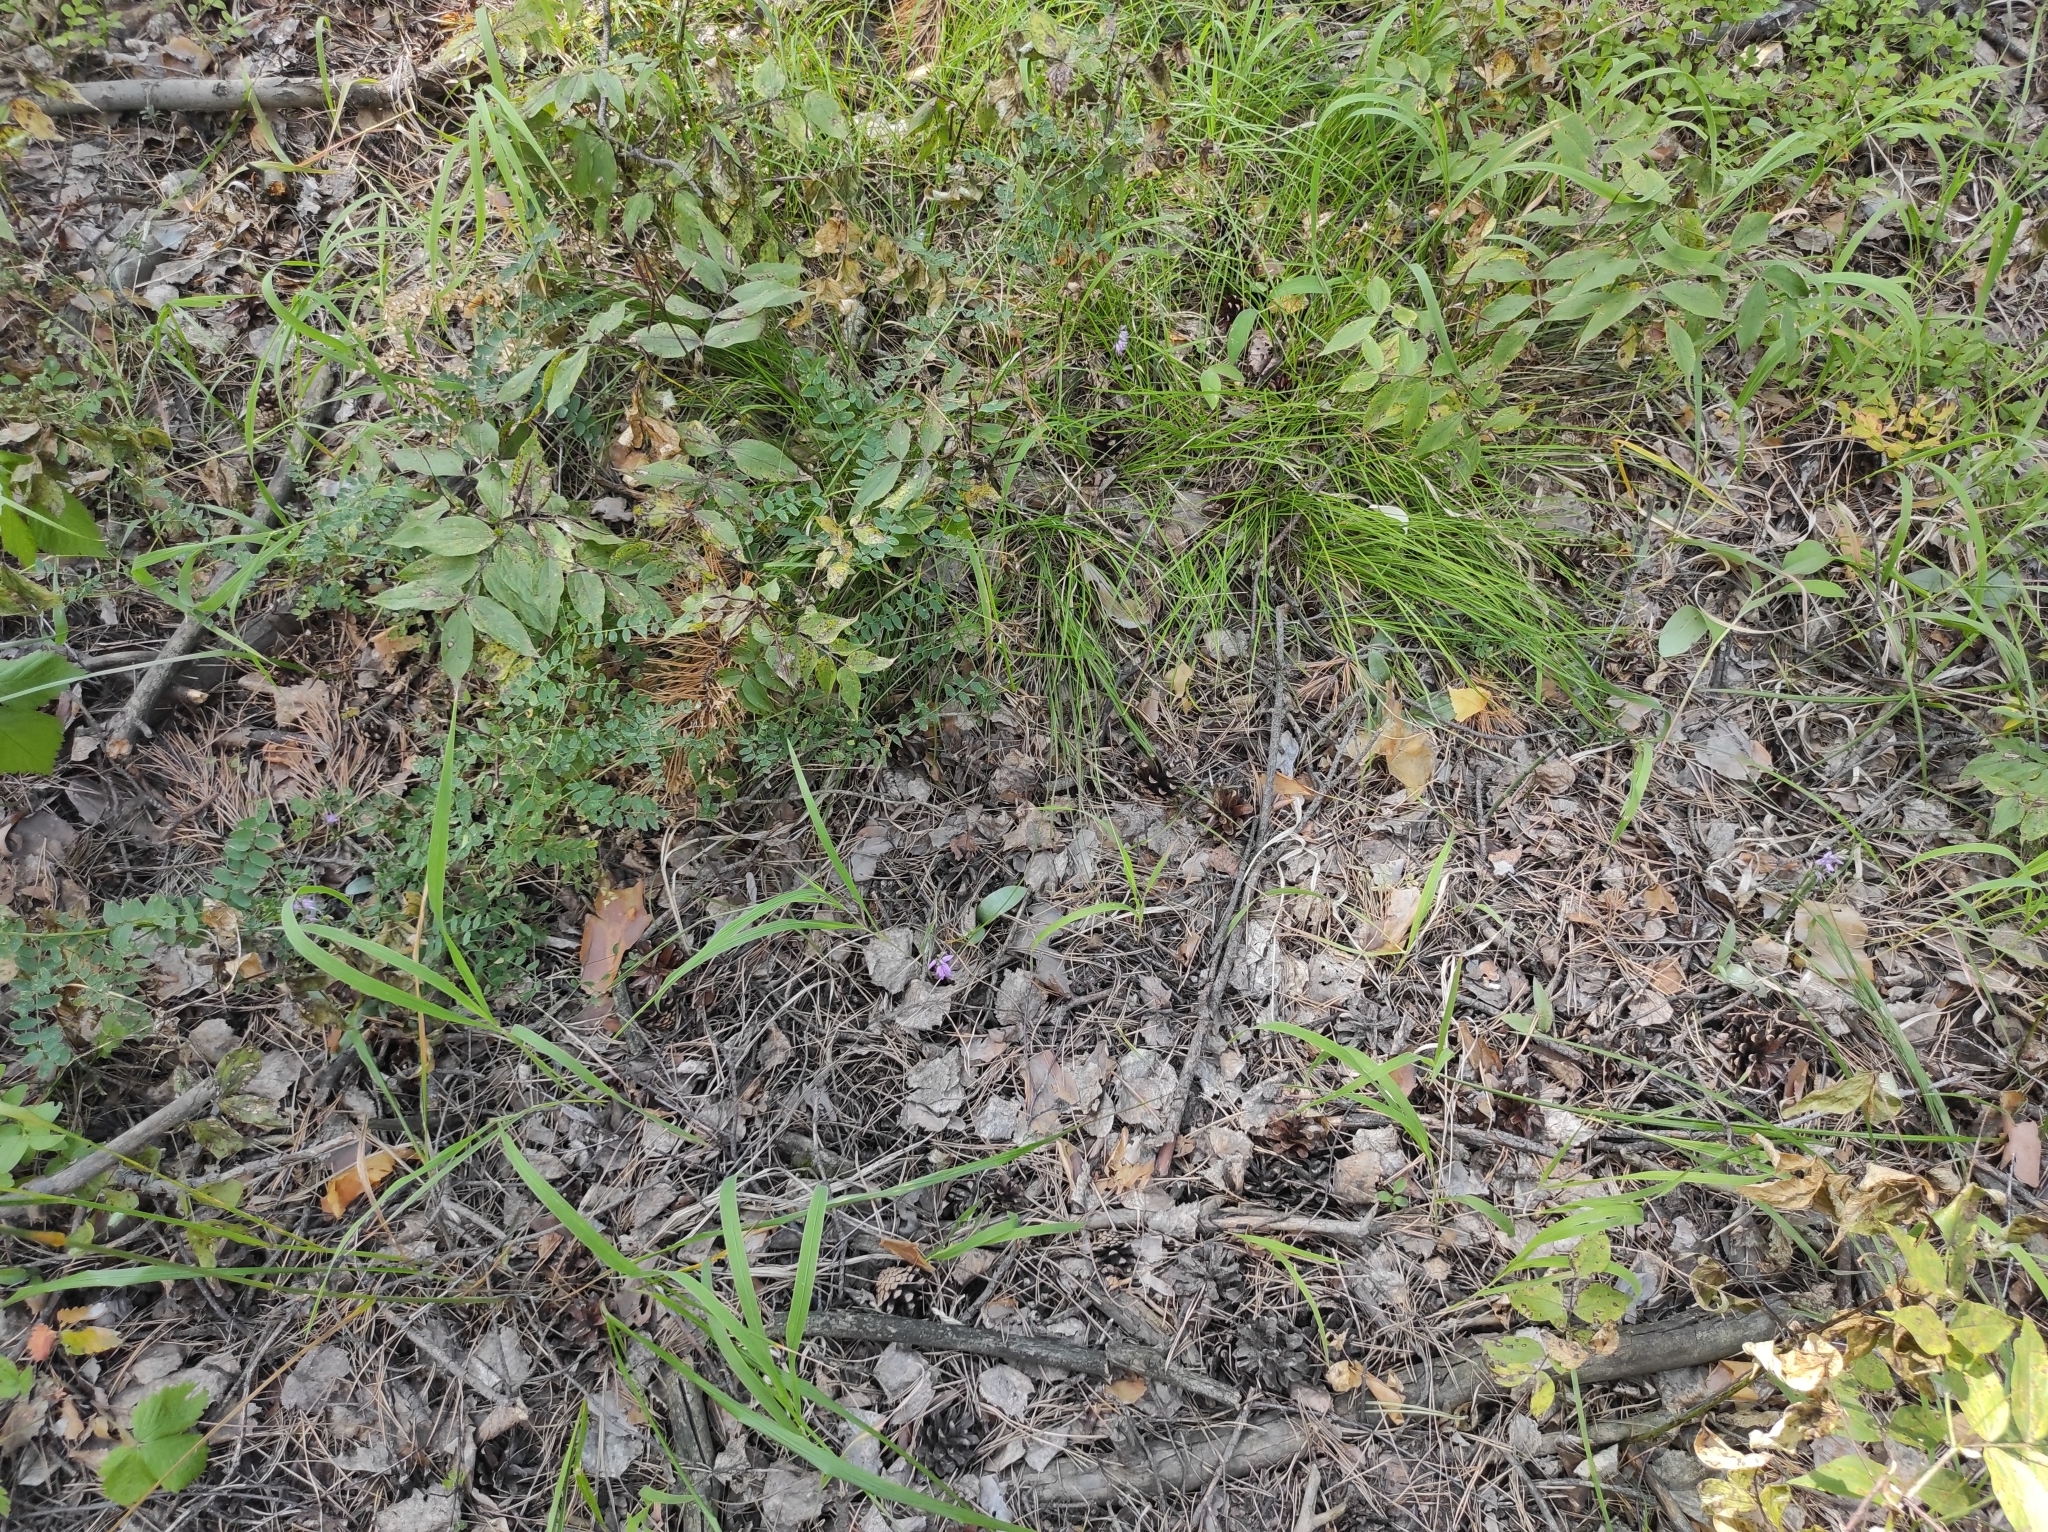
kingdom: Plantae
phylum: Tracheophyta
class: Liliopsida
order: Asparagales
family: Orchidaceae
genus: Hemipilia
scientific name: Hemipilia cucullata
